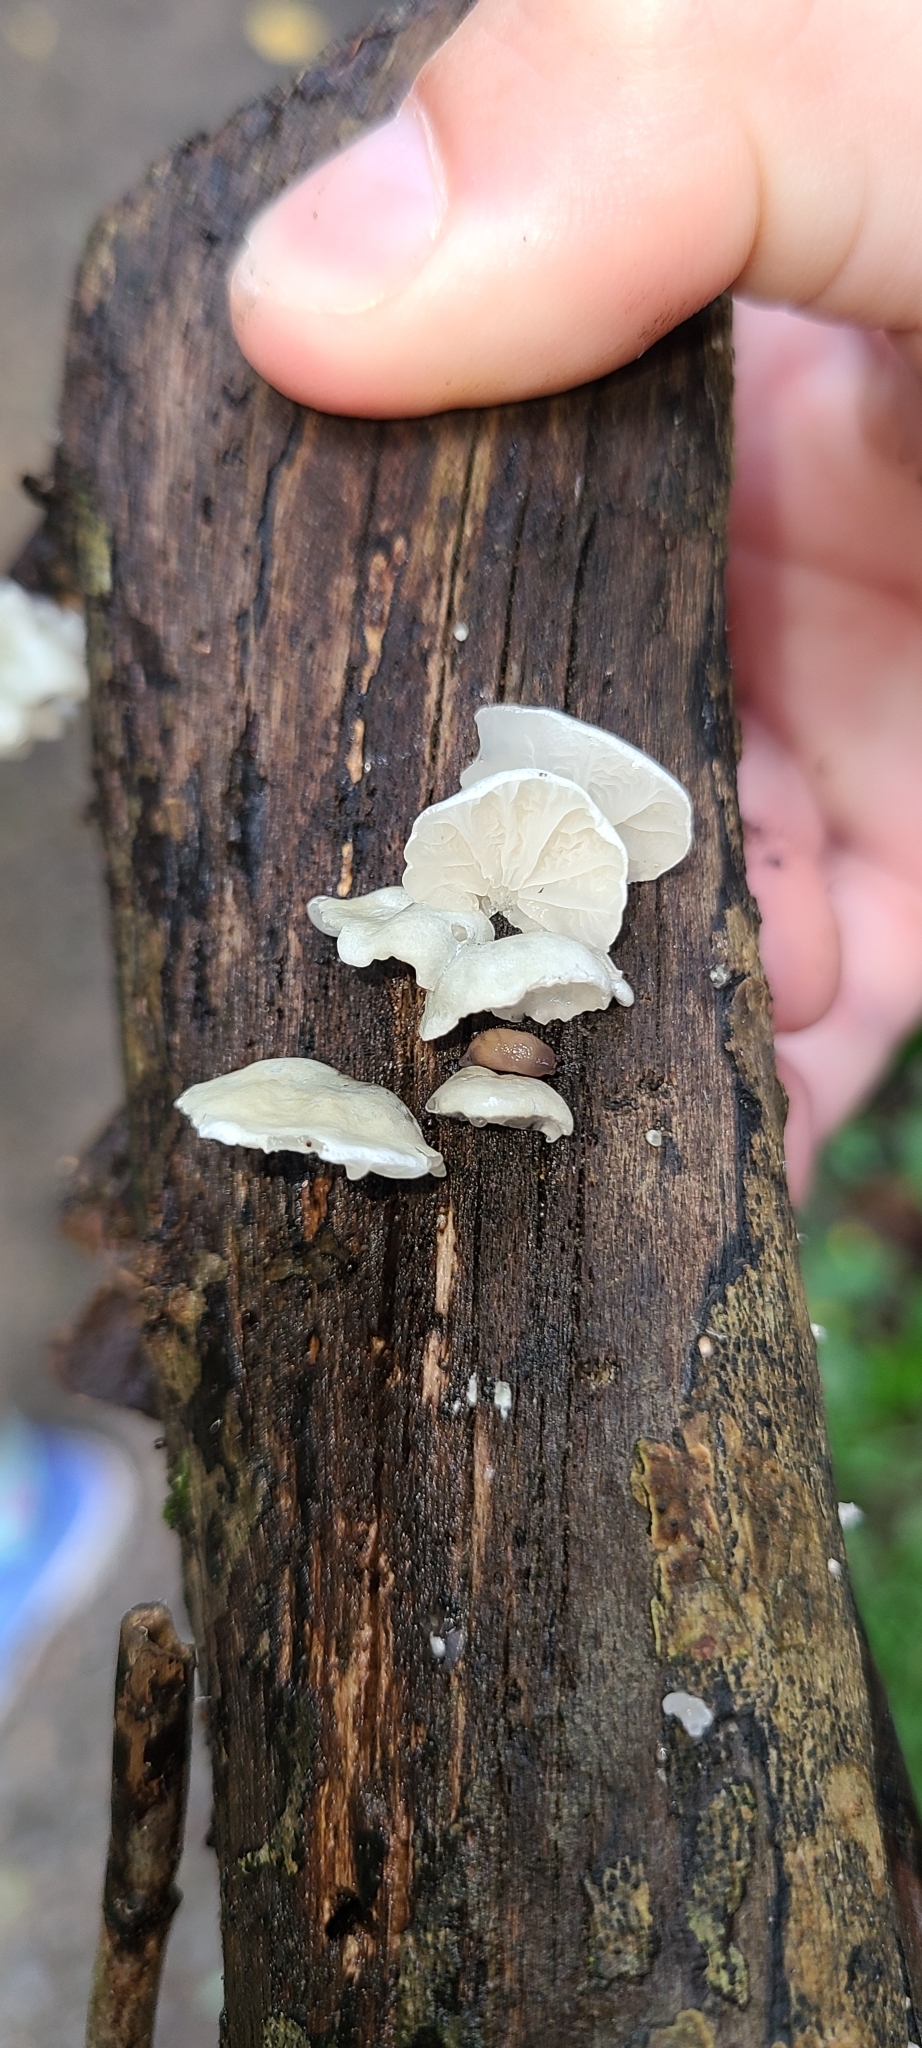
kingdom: Fungi
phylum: Basidiomycota
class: Agaricomycetes
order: Agaricales
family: Marasmiaceae
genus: Campanella
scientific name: Campanella tristis
